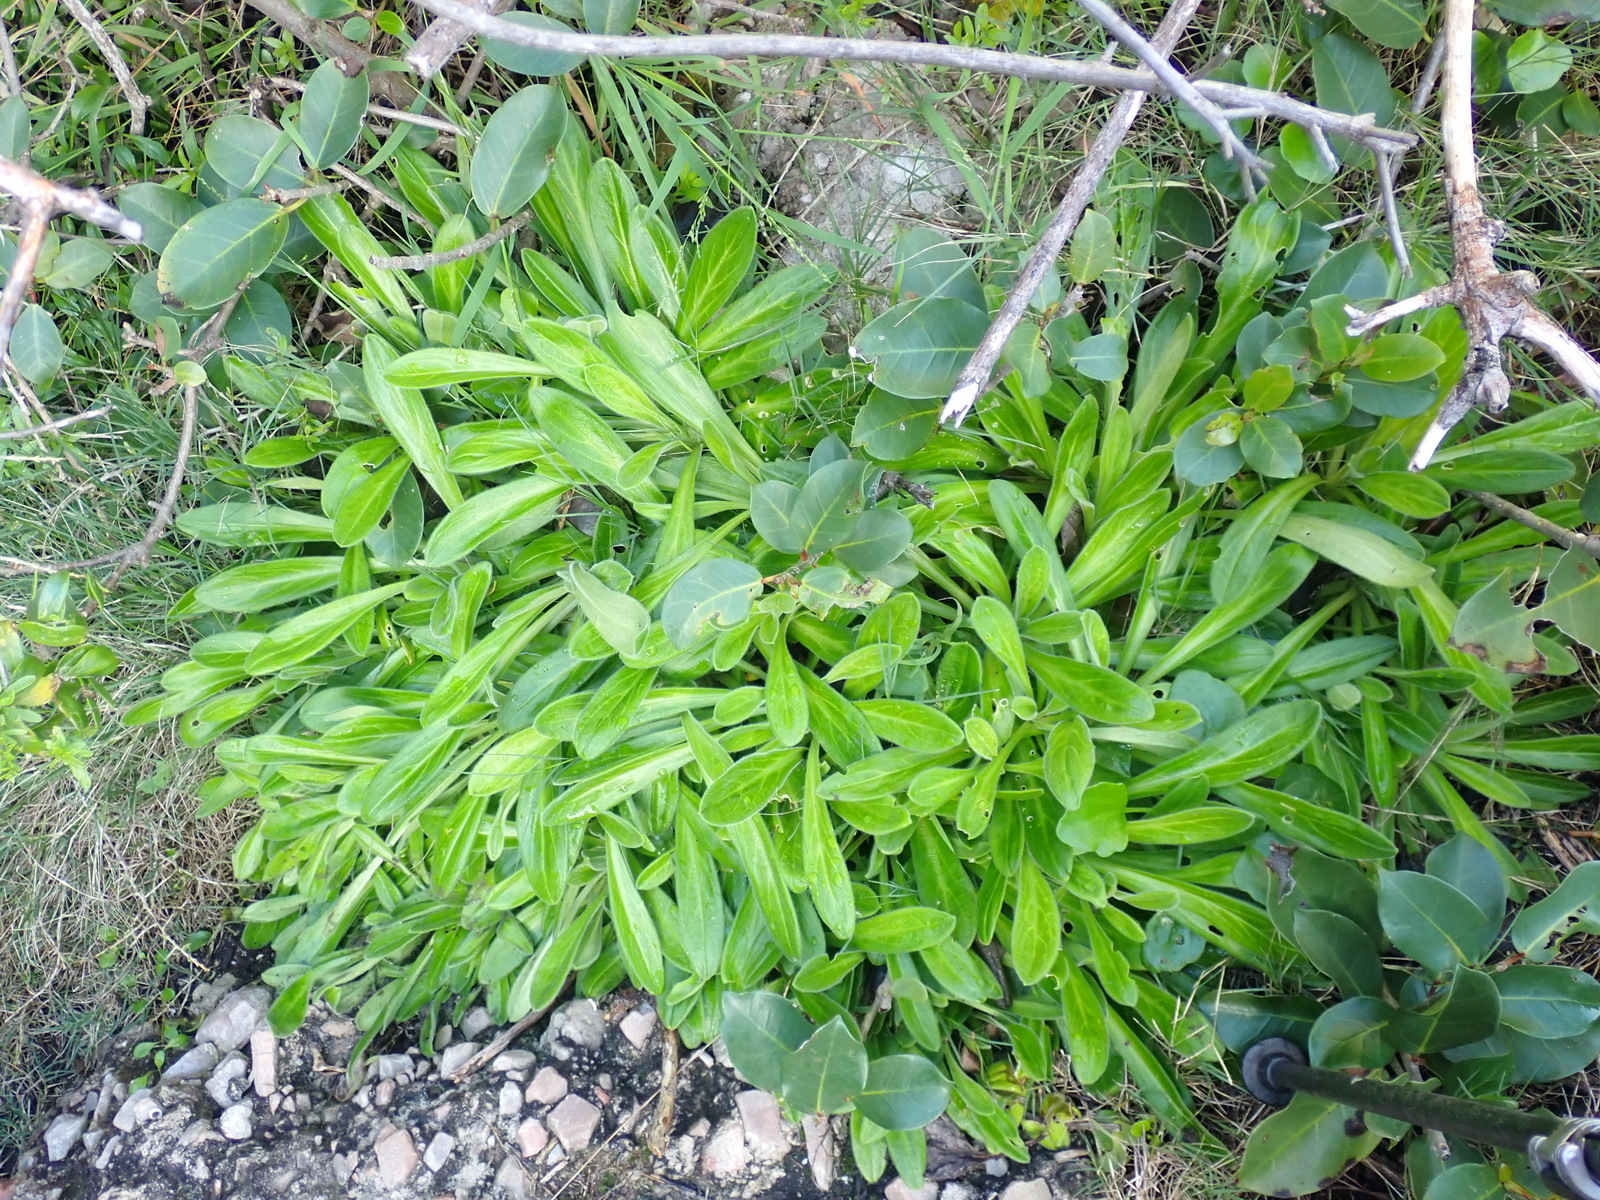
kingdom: Plantae
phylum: Tracheophyta
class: Magnoliopsida
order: Caryophyllales
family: Caryophyllaceae
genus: Silene
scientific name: Silene undulata
